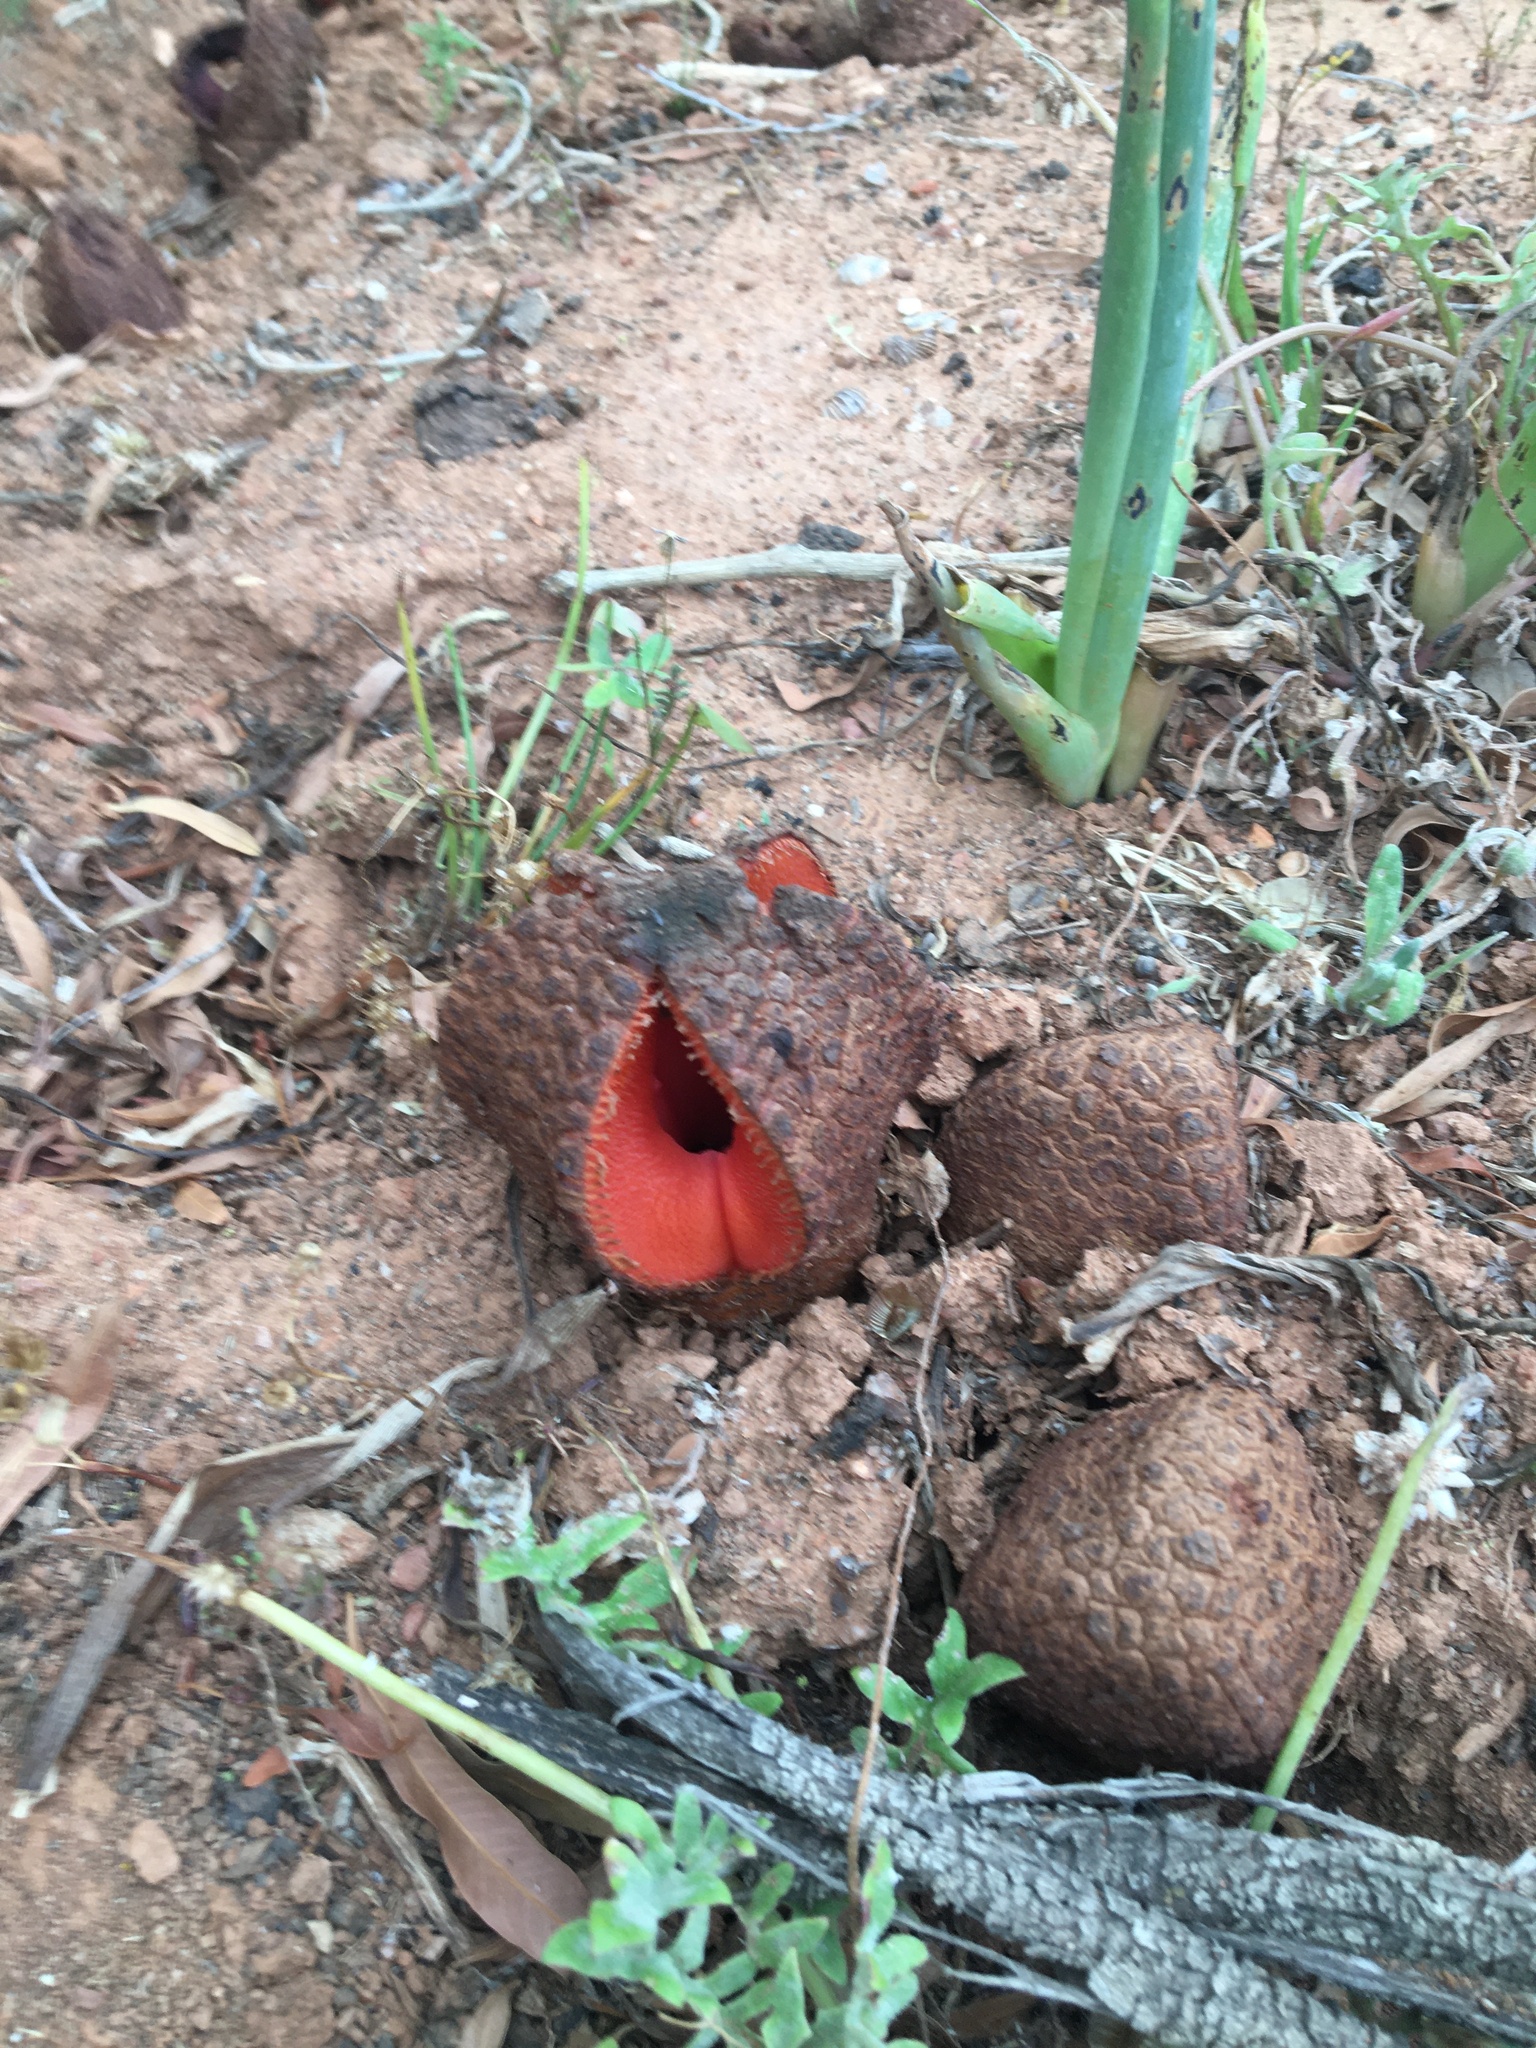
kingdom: Plantae
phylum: Tracheophyta
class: Magnoliopsida
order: Piperales
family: Hydnoraceae
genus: Hydnora
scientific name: Hydnora africana
